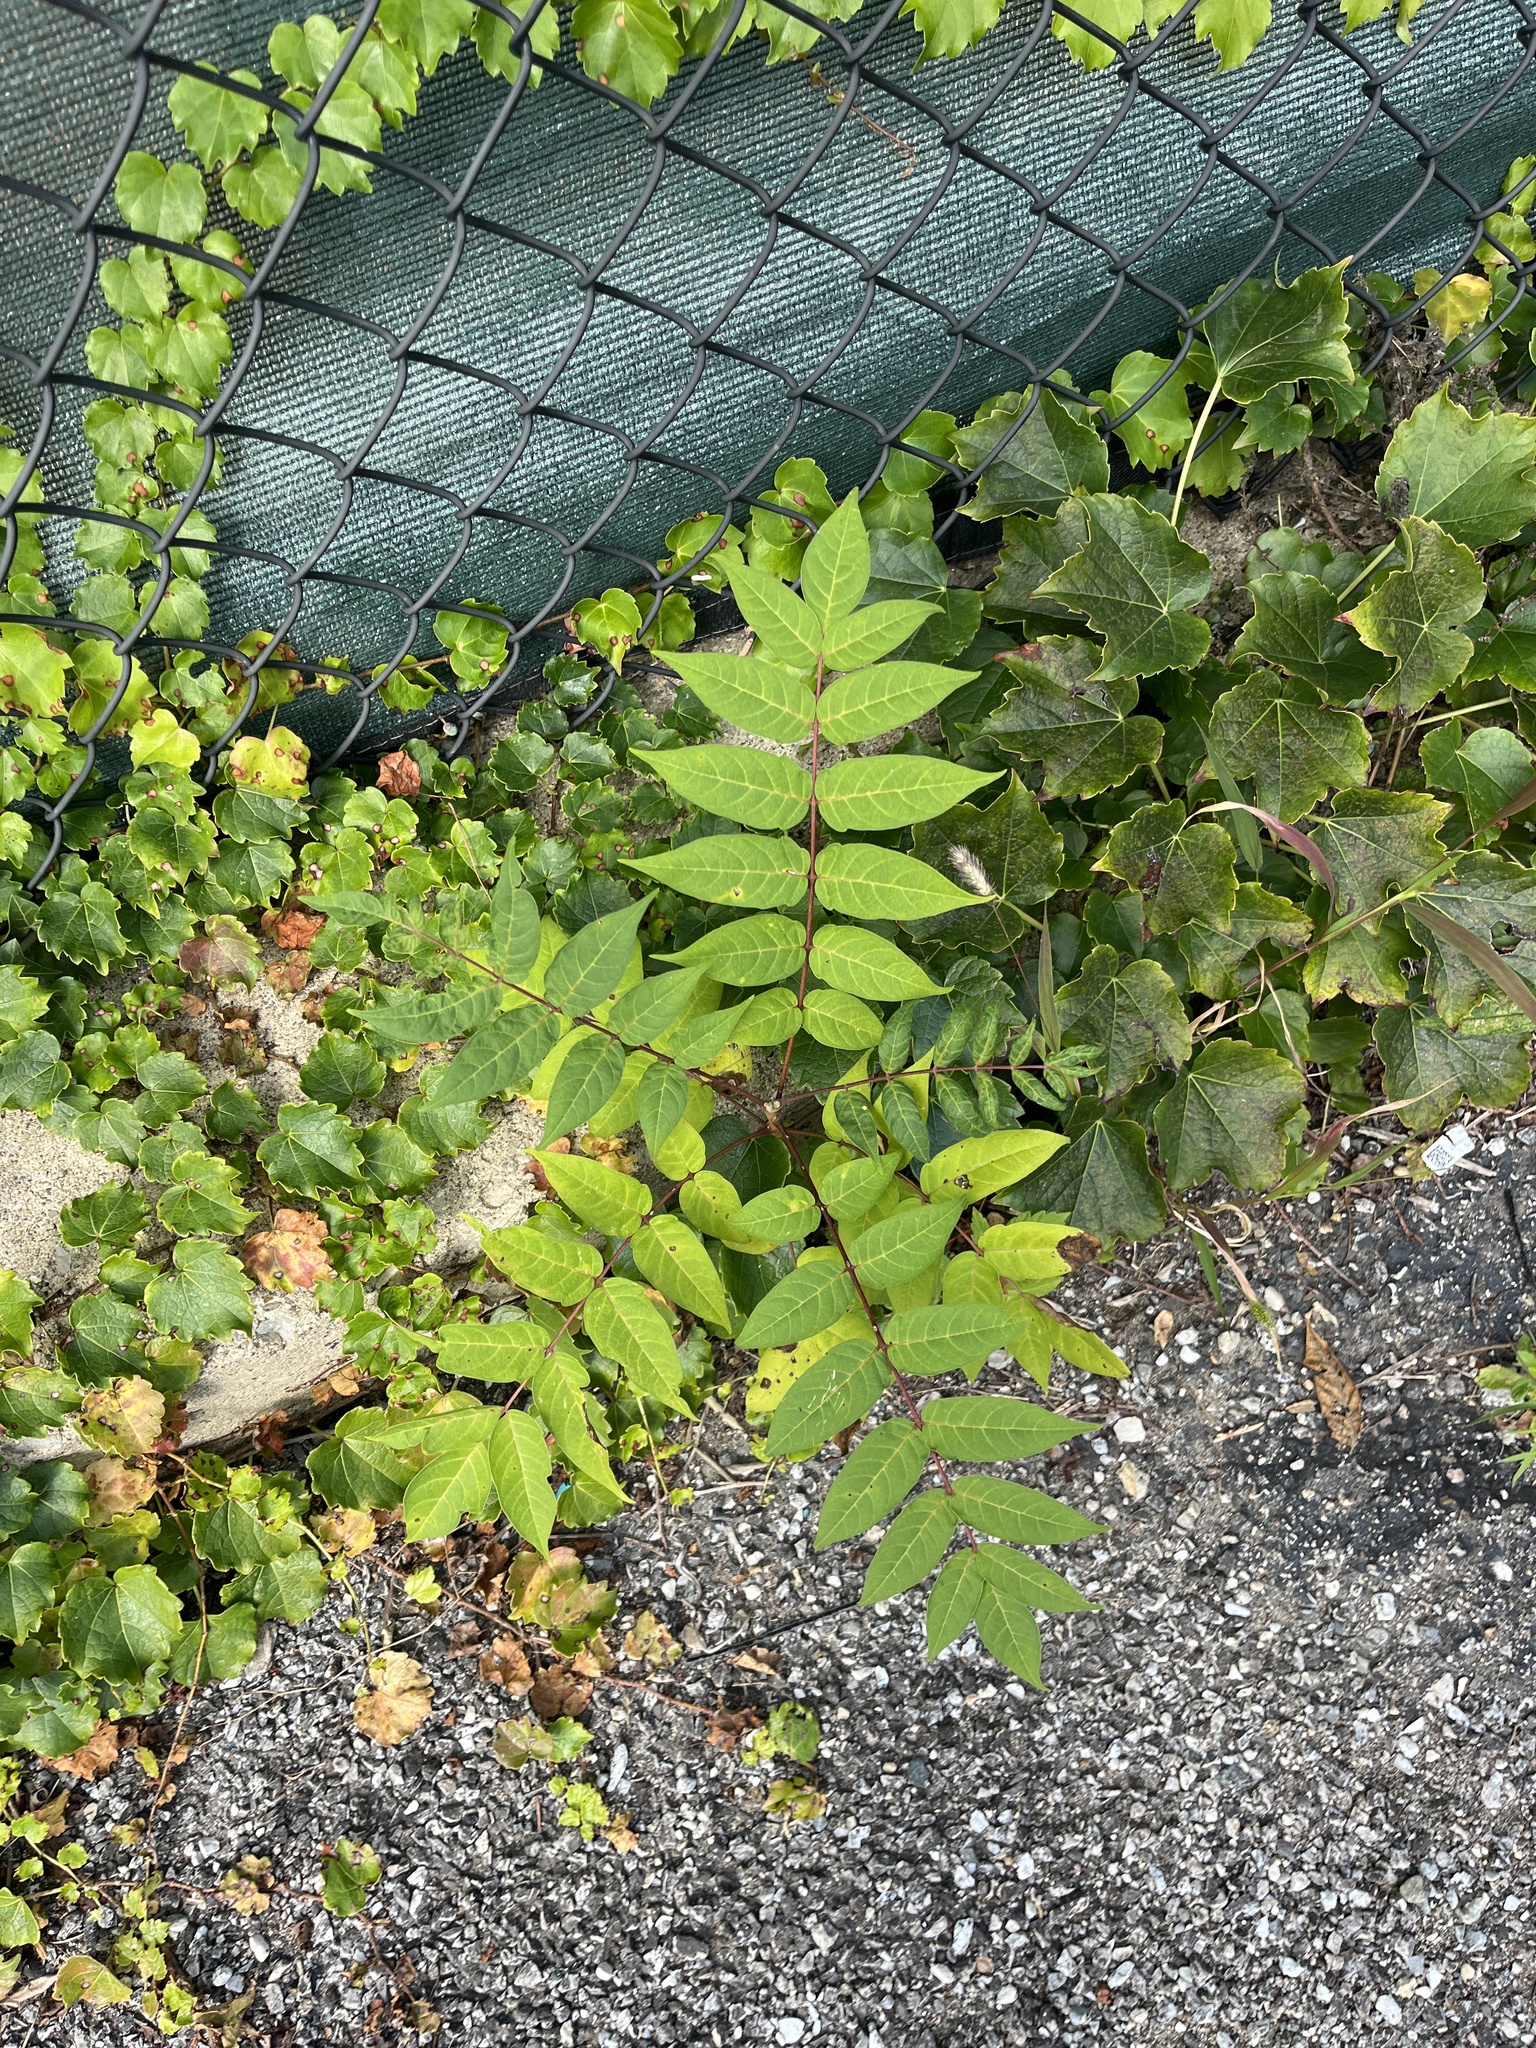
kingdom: Plantae
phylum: Tracheophyta
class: Magnoliopsida
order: Sapindales
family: Simaroubaceae
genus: Ailanthus
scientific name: Ailanthus altissima
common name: Tree-of-heaven
